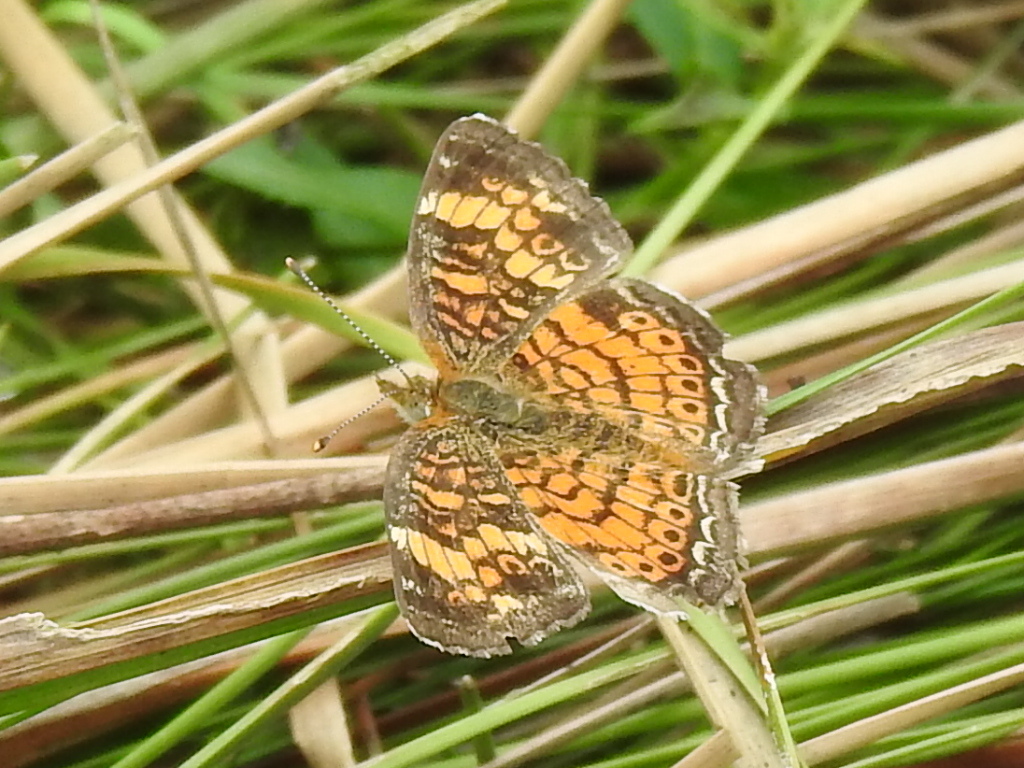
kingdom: Animalia
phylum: Arthropoda
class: Insecta
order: Lepidoptera
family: Nymphalidae
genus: Phyciodes
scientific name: Phyciodes tharos
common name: Pearl crescent
